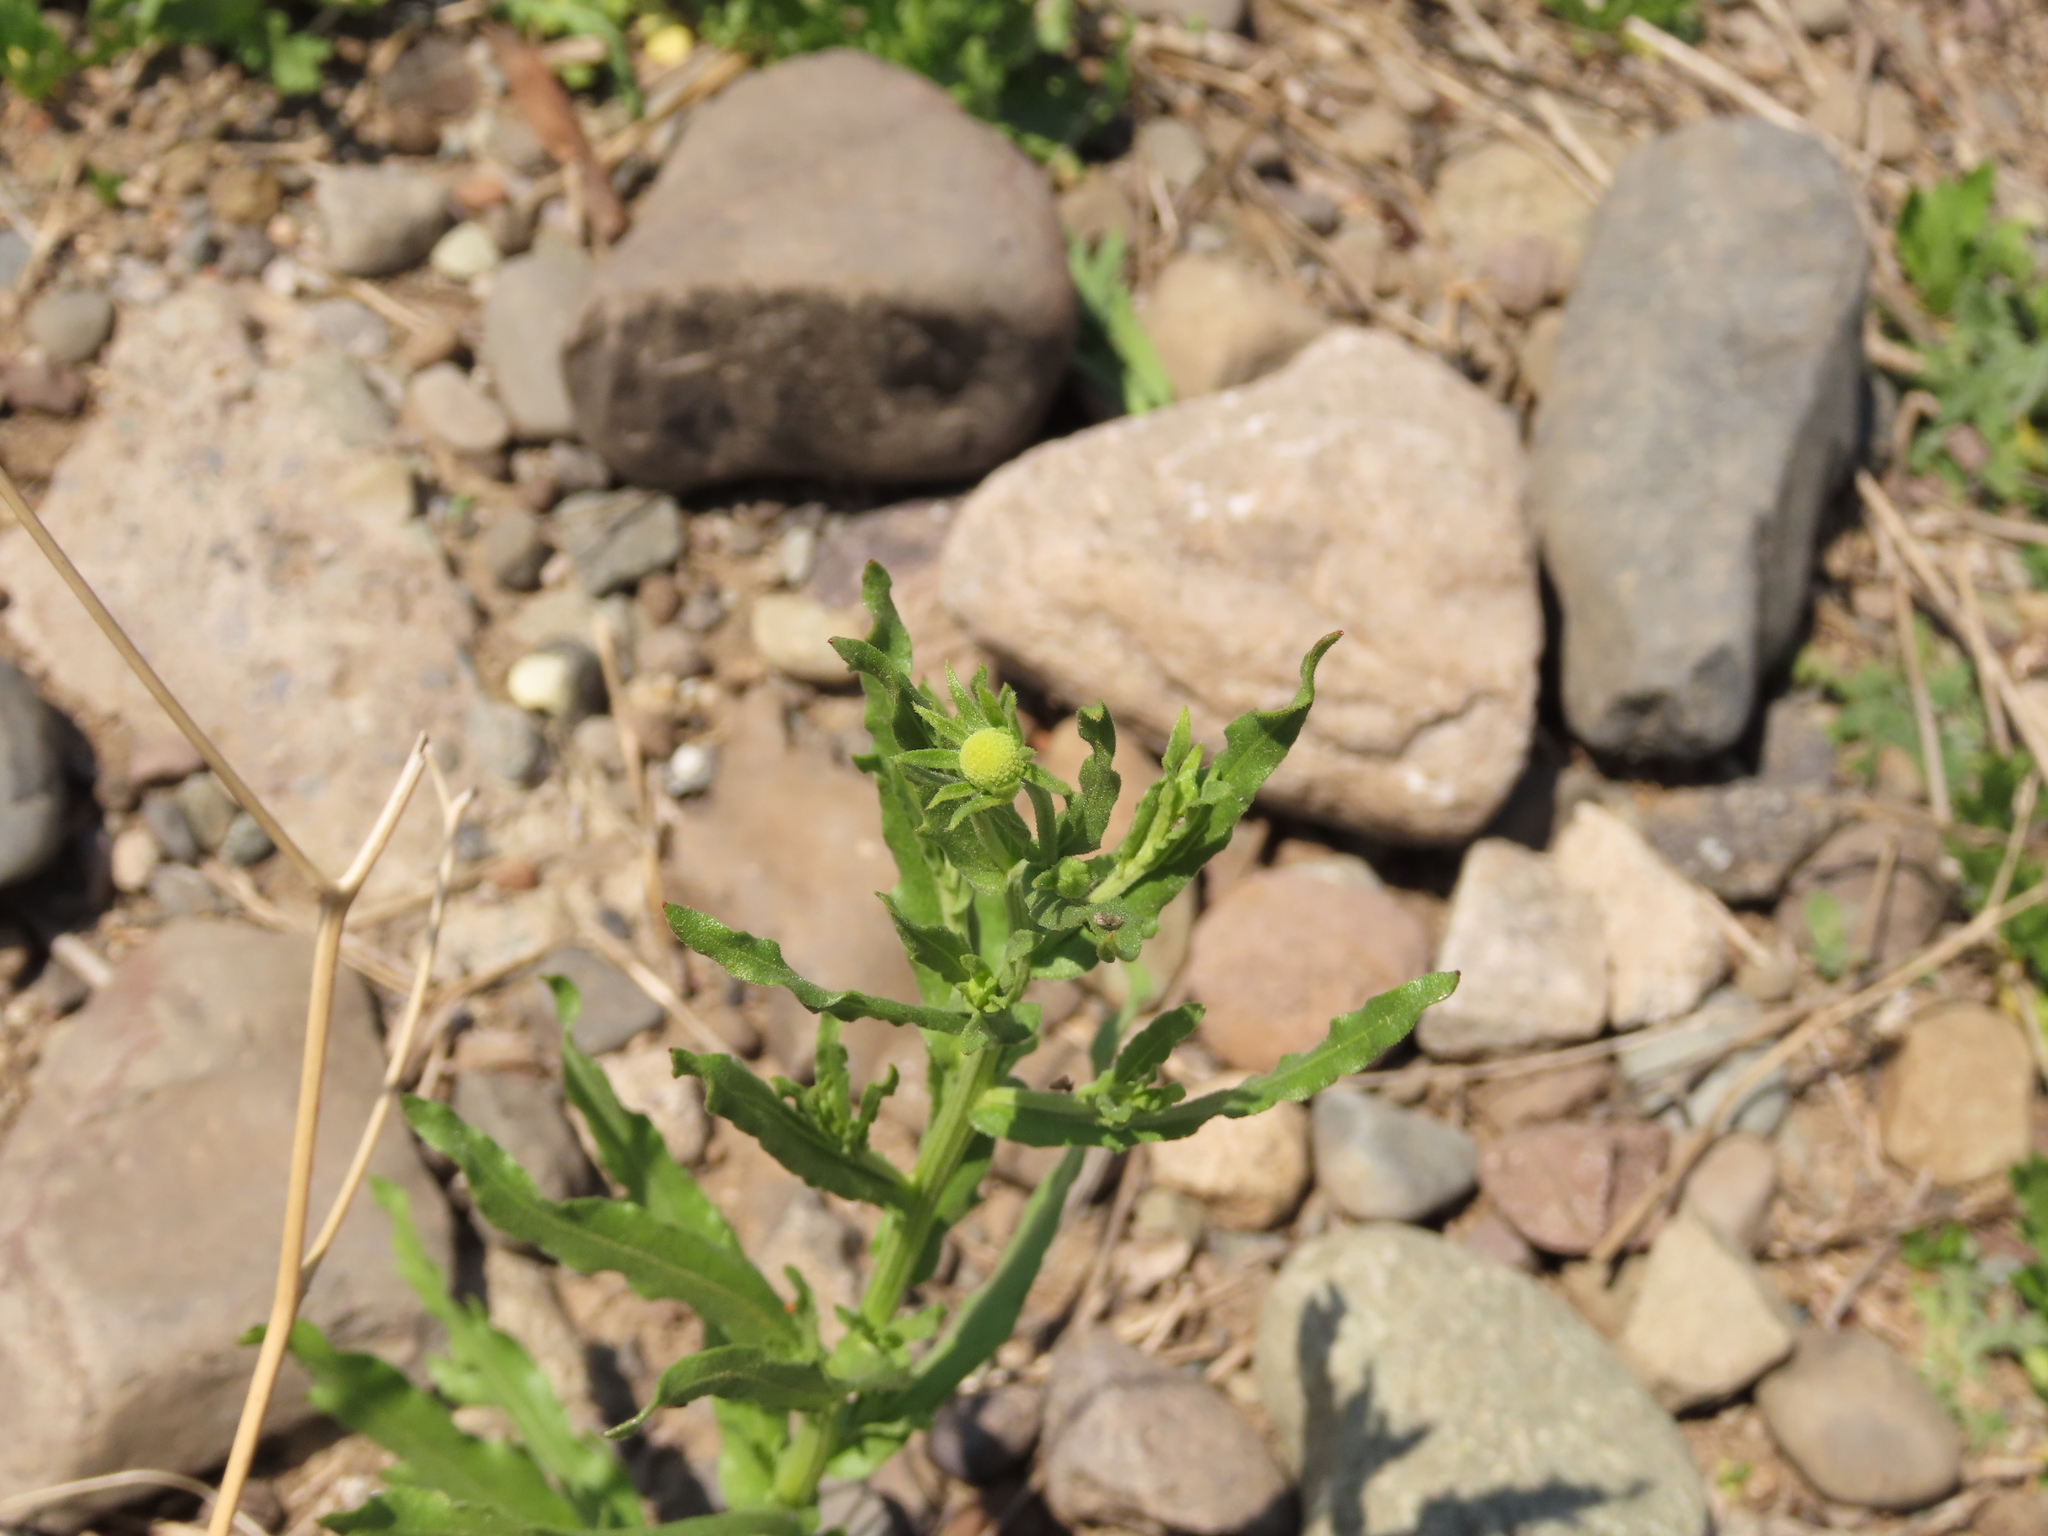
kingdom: Plantae
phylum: Tracheophyta
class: Magnoliopsida
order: Asterales
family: Asteraceae
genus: Helenium
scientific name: Helenium aromaticum
